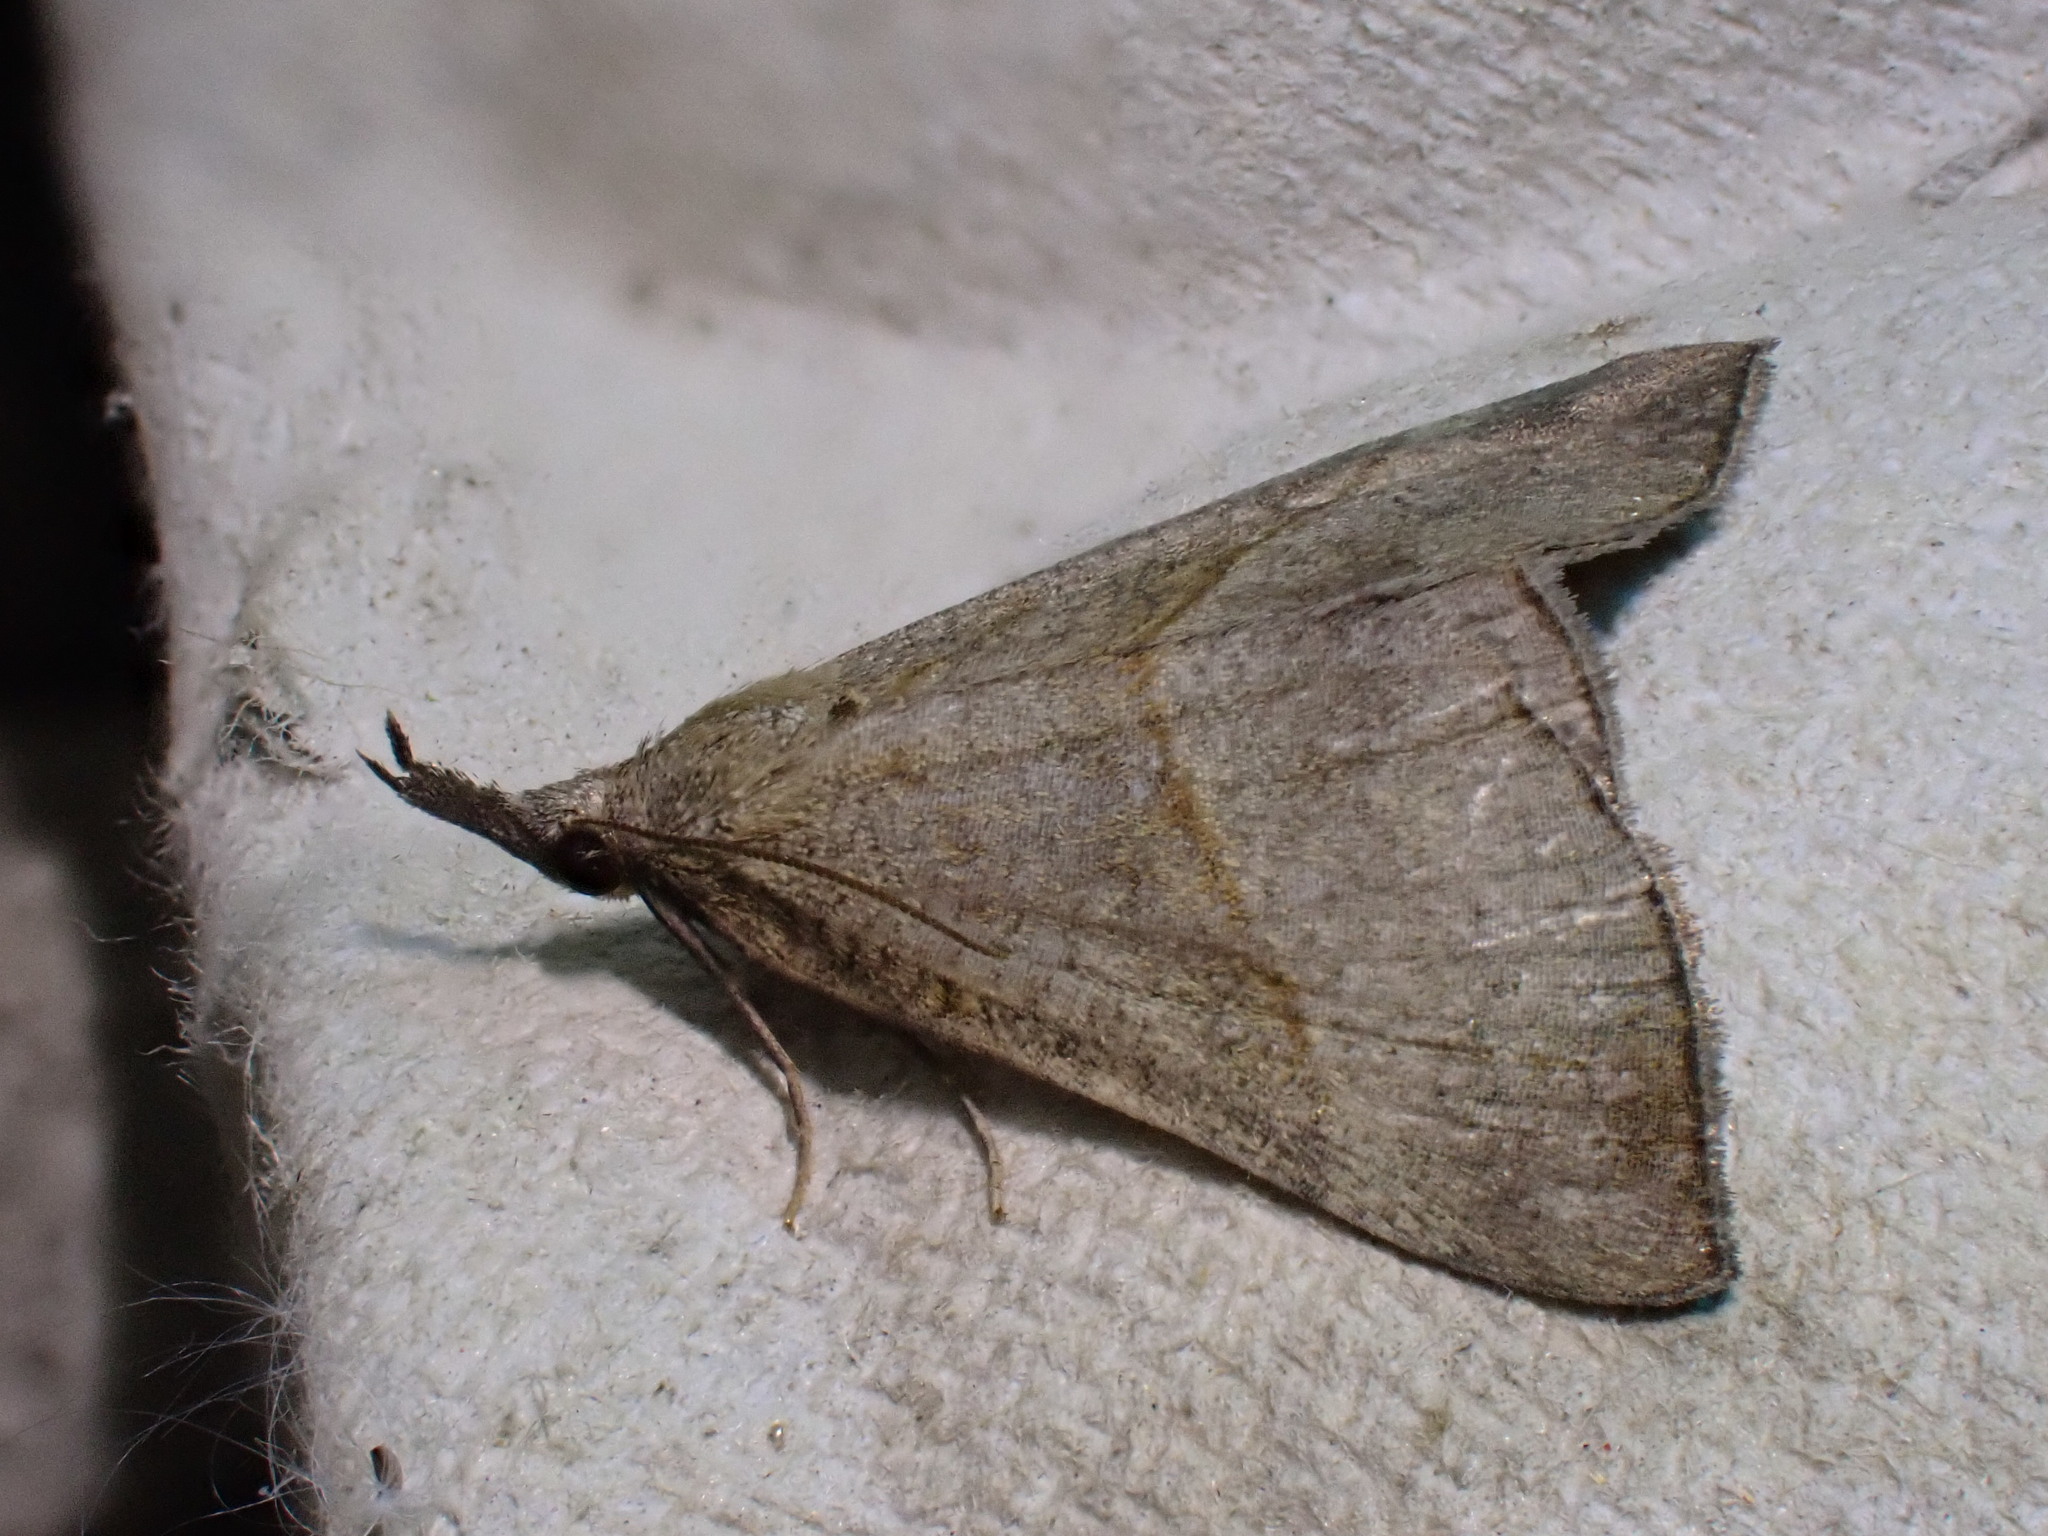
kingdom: Animalia
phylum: Arthropoda
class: Insecta
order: Lepidoptera
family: Erebidae
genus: Hypena
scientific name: Hypena proboscidalis
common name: Snout
